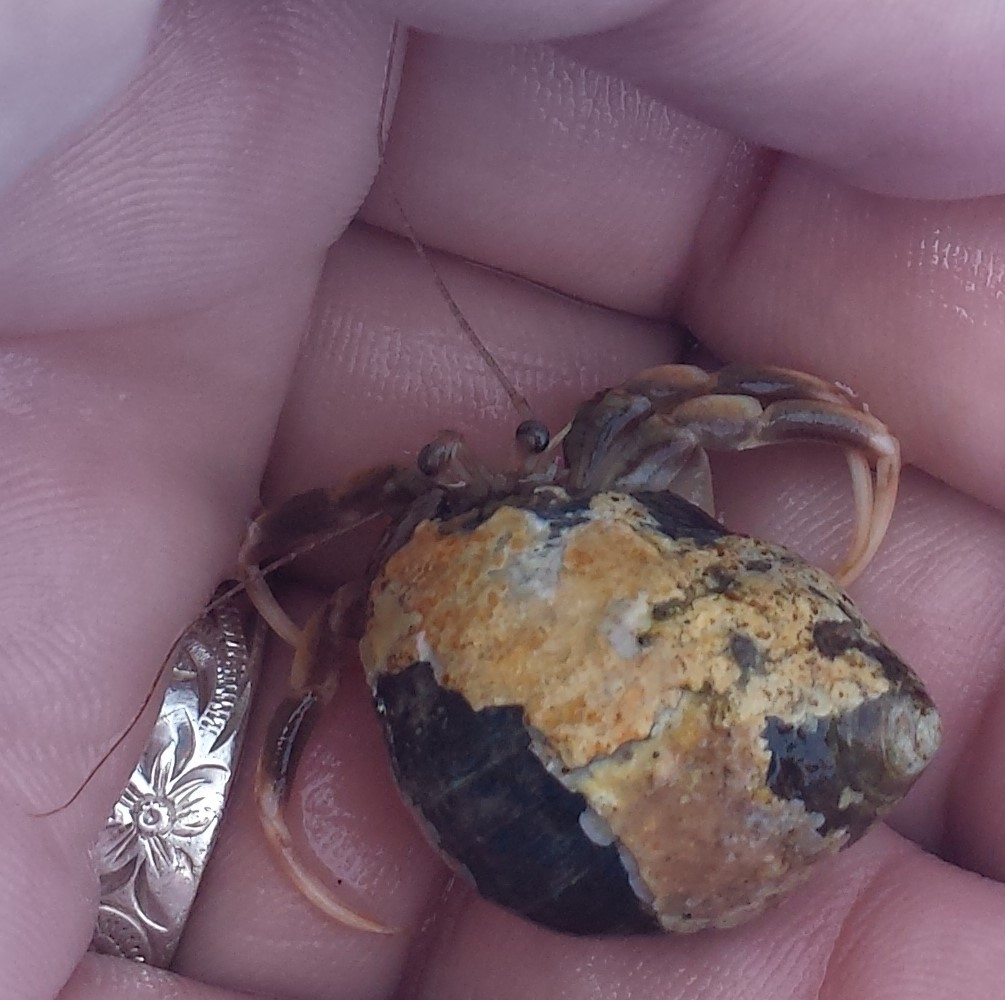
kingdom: Animalia
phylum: Arthropoda
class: Malacostraca
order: Decapoda
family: Paguridae
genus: Pagurus
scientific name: Pagurus longicarpus
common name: Long-armed hermit crab
